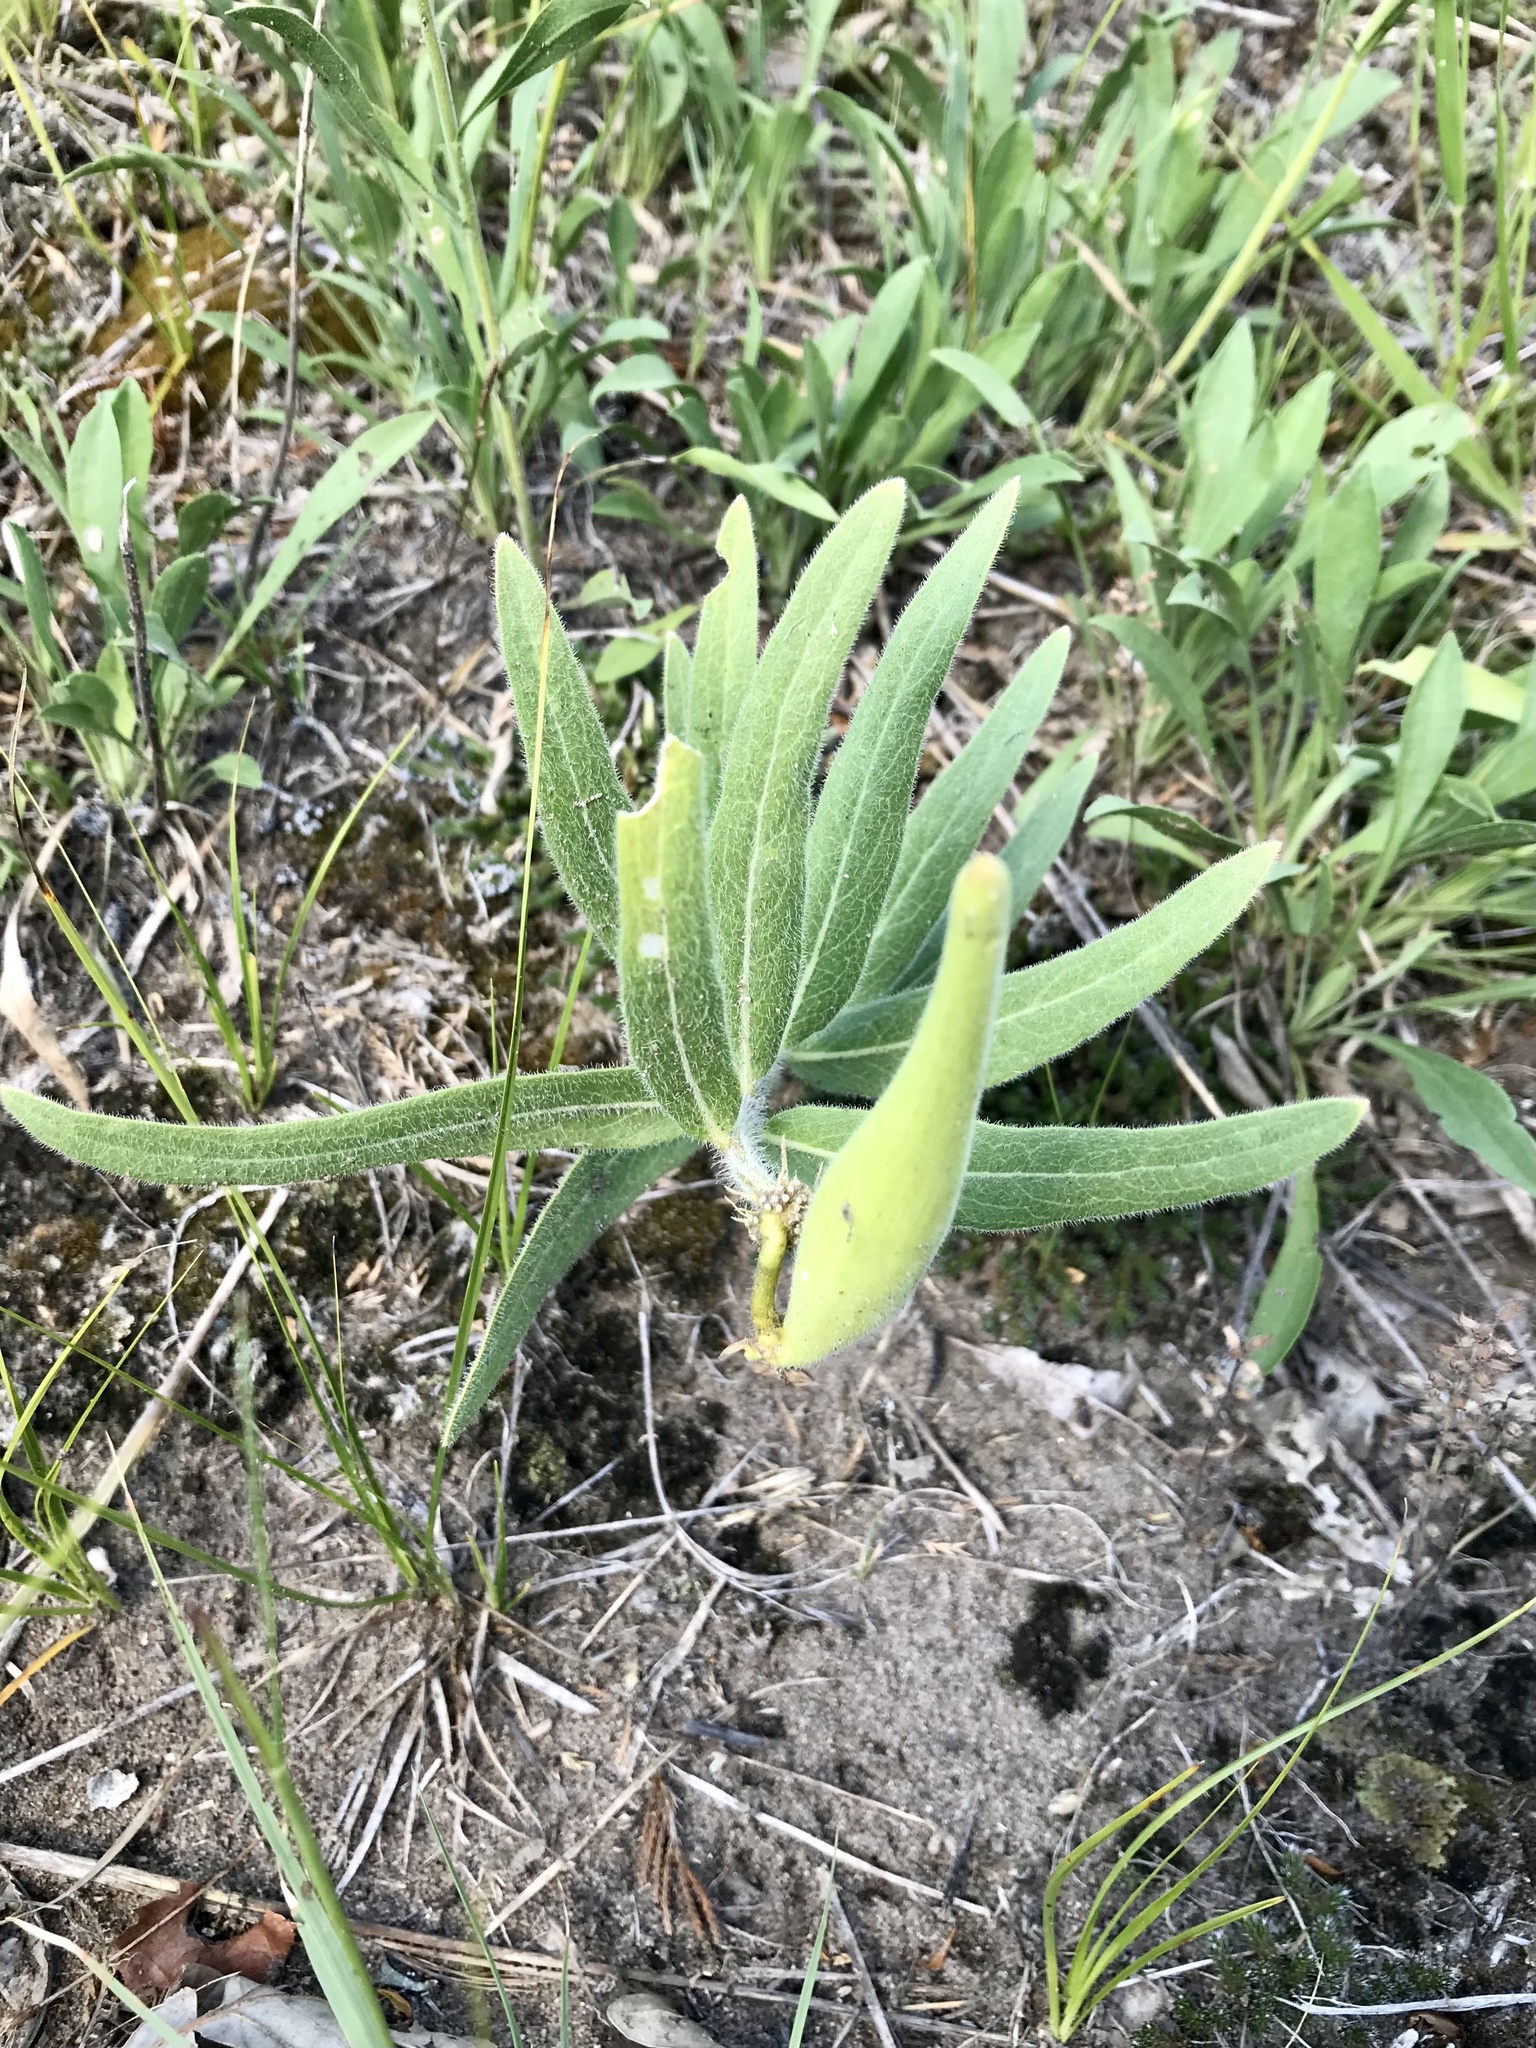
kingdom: Plantae
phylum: Tracheophyta
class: Magnoliopsida
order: Gentianales
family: Apocynaceae
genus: Asclepias
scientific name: Asclepias lanuginosa
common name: Side-cluster milkweed
